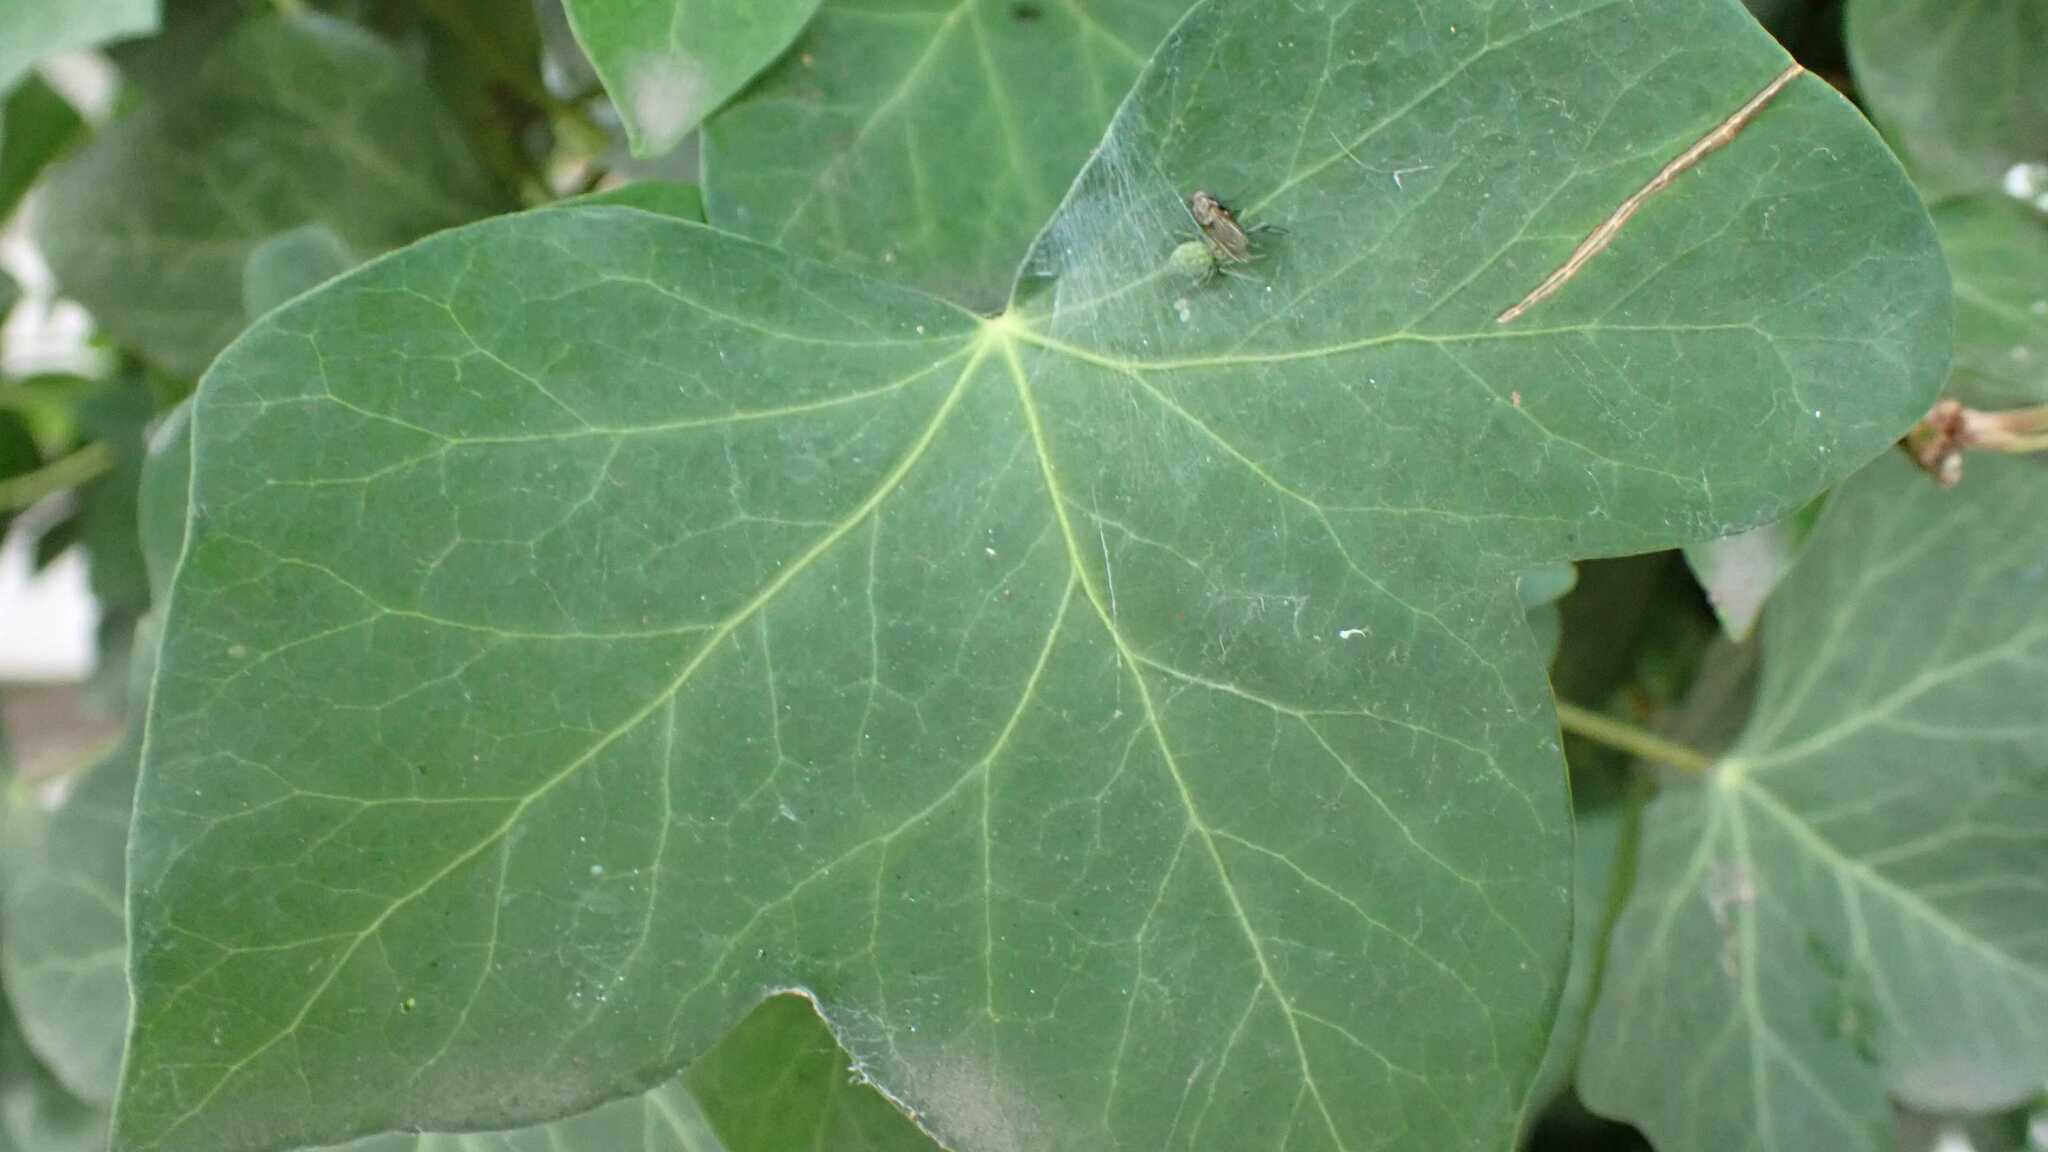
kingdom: Animalia
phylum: Arthropoda
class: Arachnida
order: Araneae
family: Dictynidae
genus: Nigma
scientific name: Nigma walckenaeri
